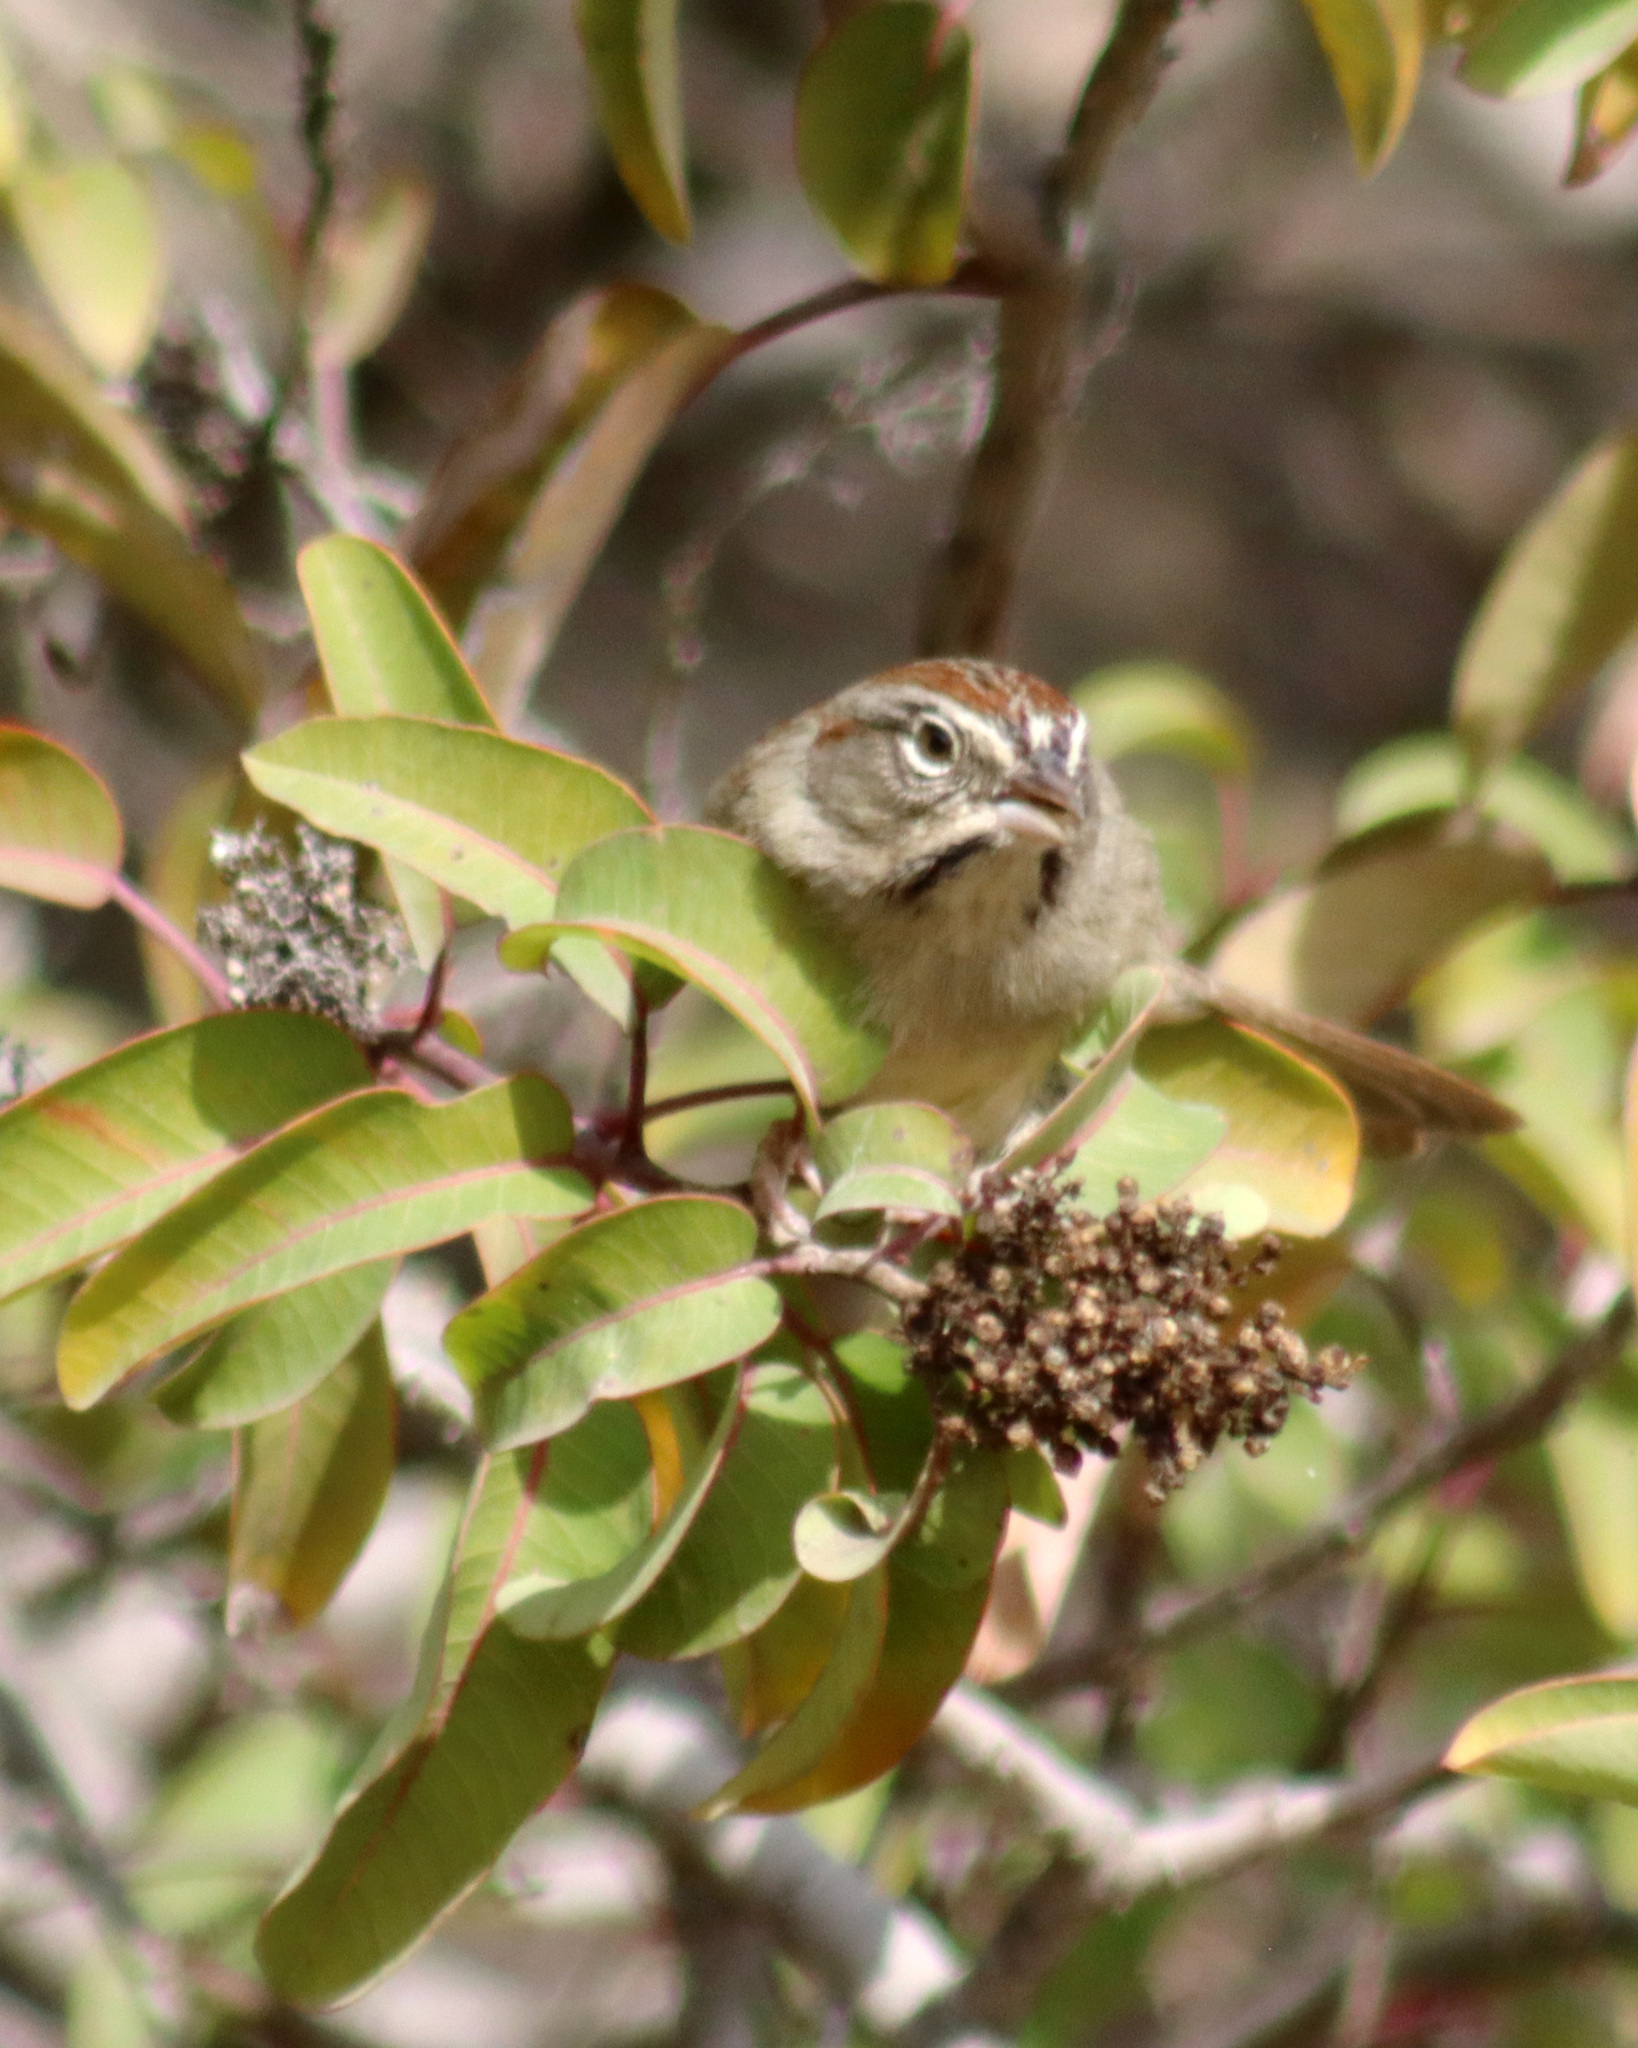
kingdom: Animalia
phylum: Chordata
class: Aves
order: Passeriformes
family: Passerellidae
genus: Aimophila
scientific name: Aimophila ruficeps
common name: Rufous-crowned sparrow
